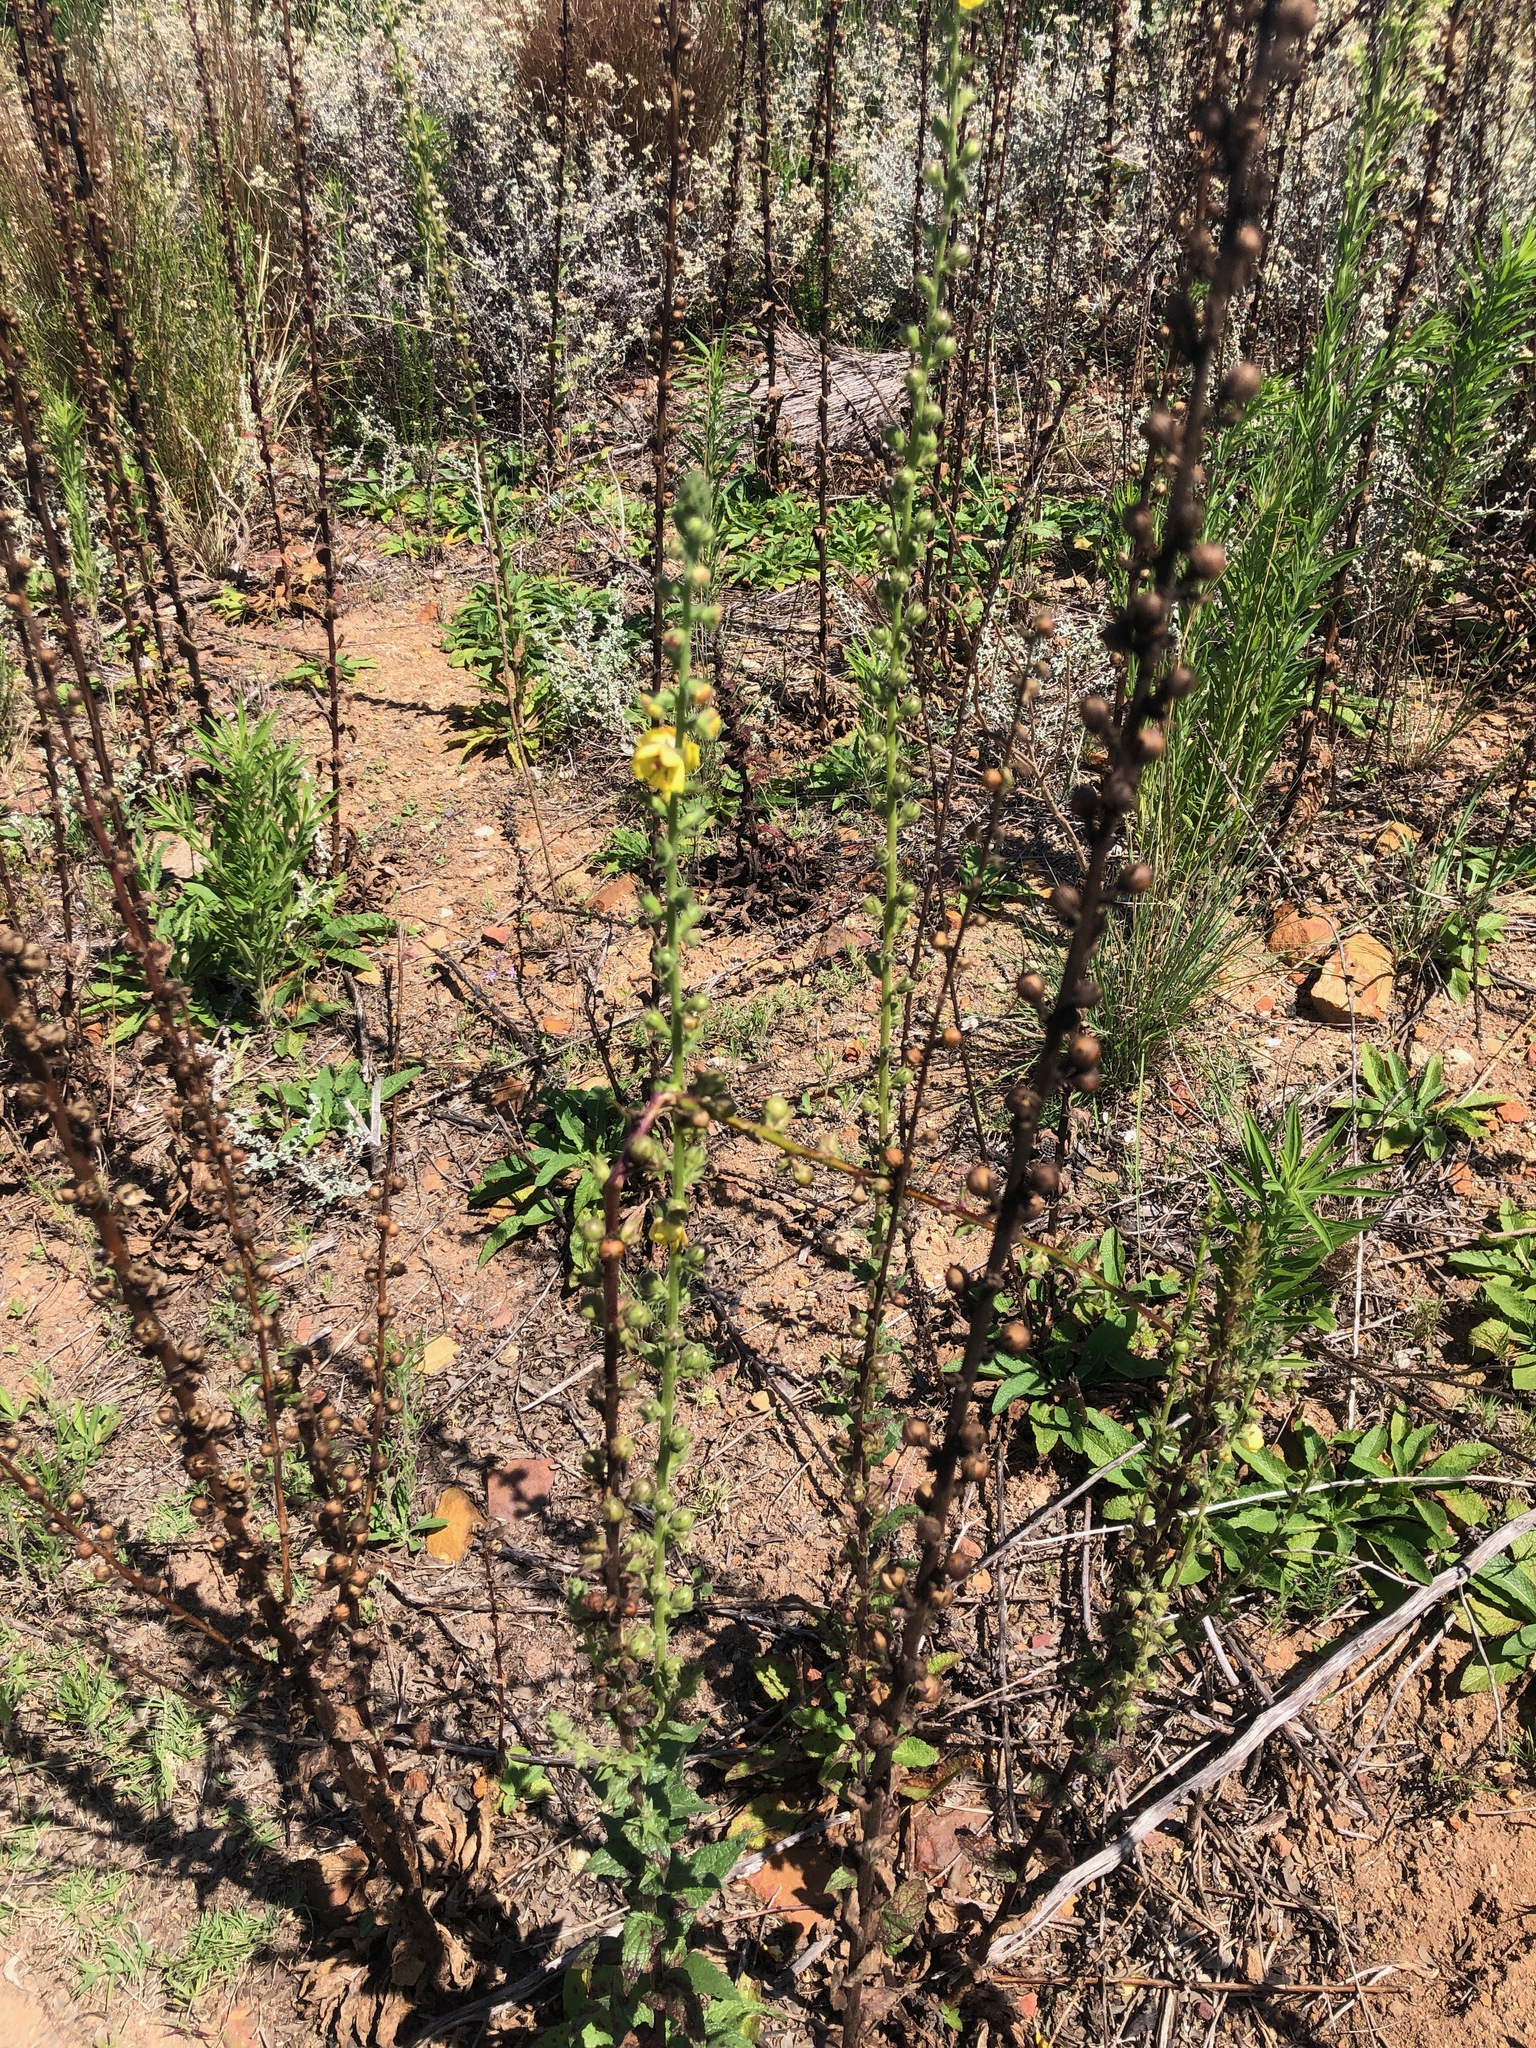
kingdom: Plantae
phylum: Tracheophyta
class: Magnoliopsida
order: Lamiales
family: Scrophulariaceae
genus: Verbascum
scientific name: Verbascum virgatum
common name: Twiggy mullein
